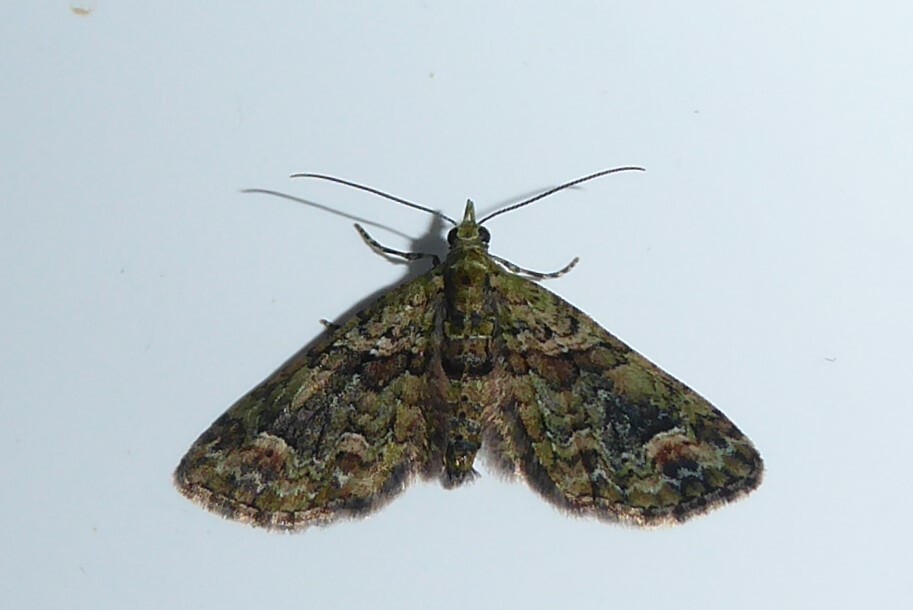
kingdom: Animalia
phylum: Arthropoda
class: Insecta
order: Lepidoptera
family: Geometridae
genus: Idaea
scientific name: Idaea mutanda
